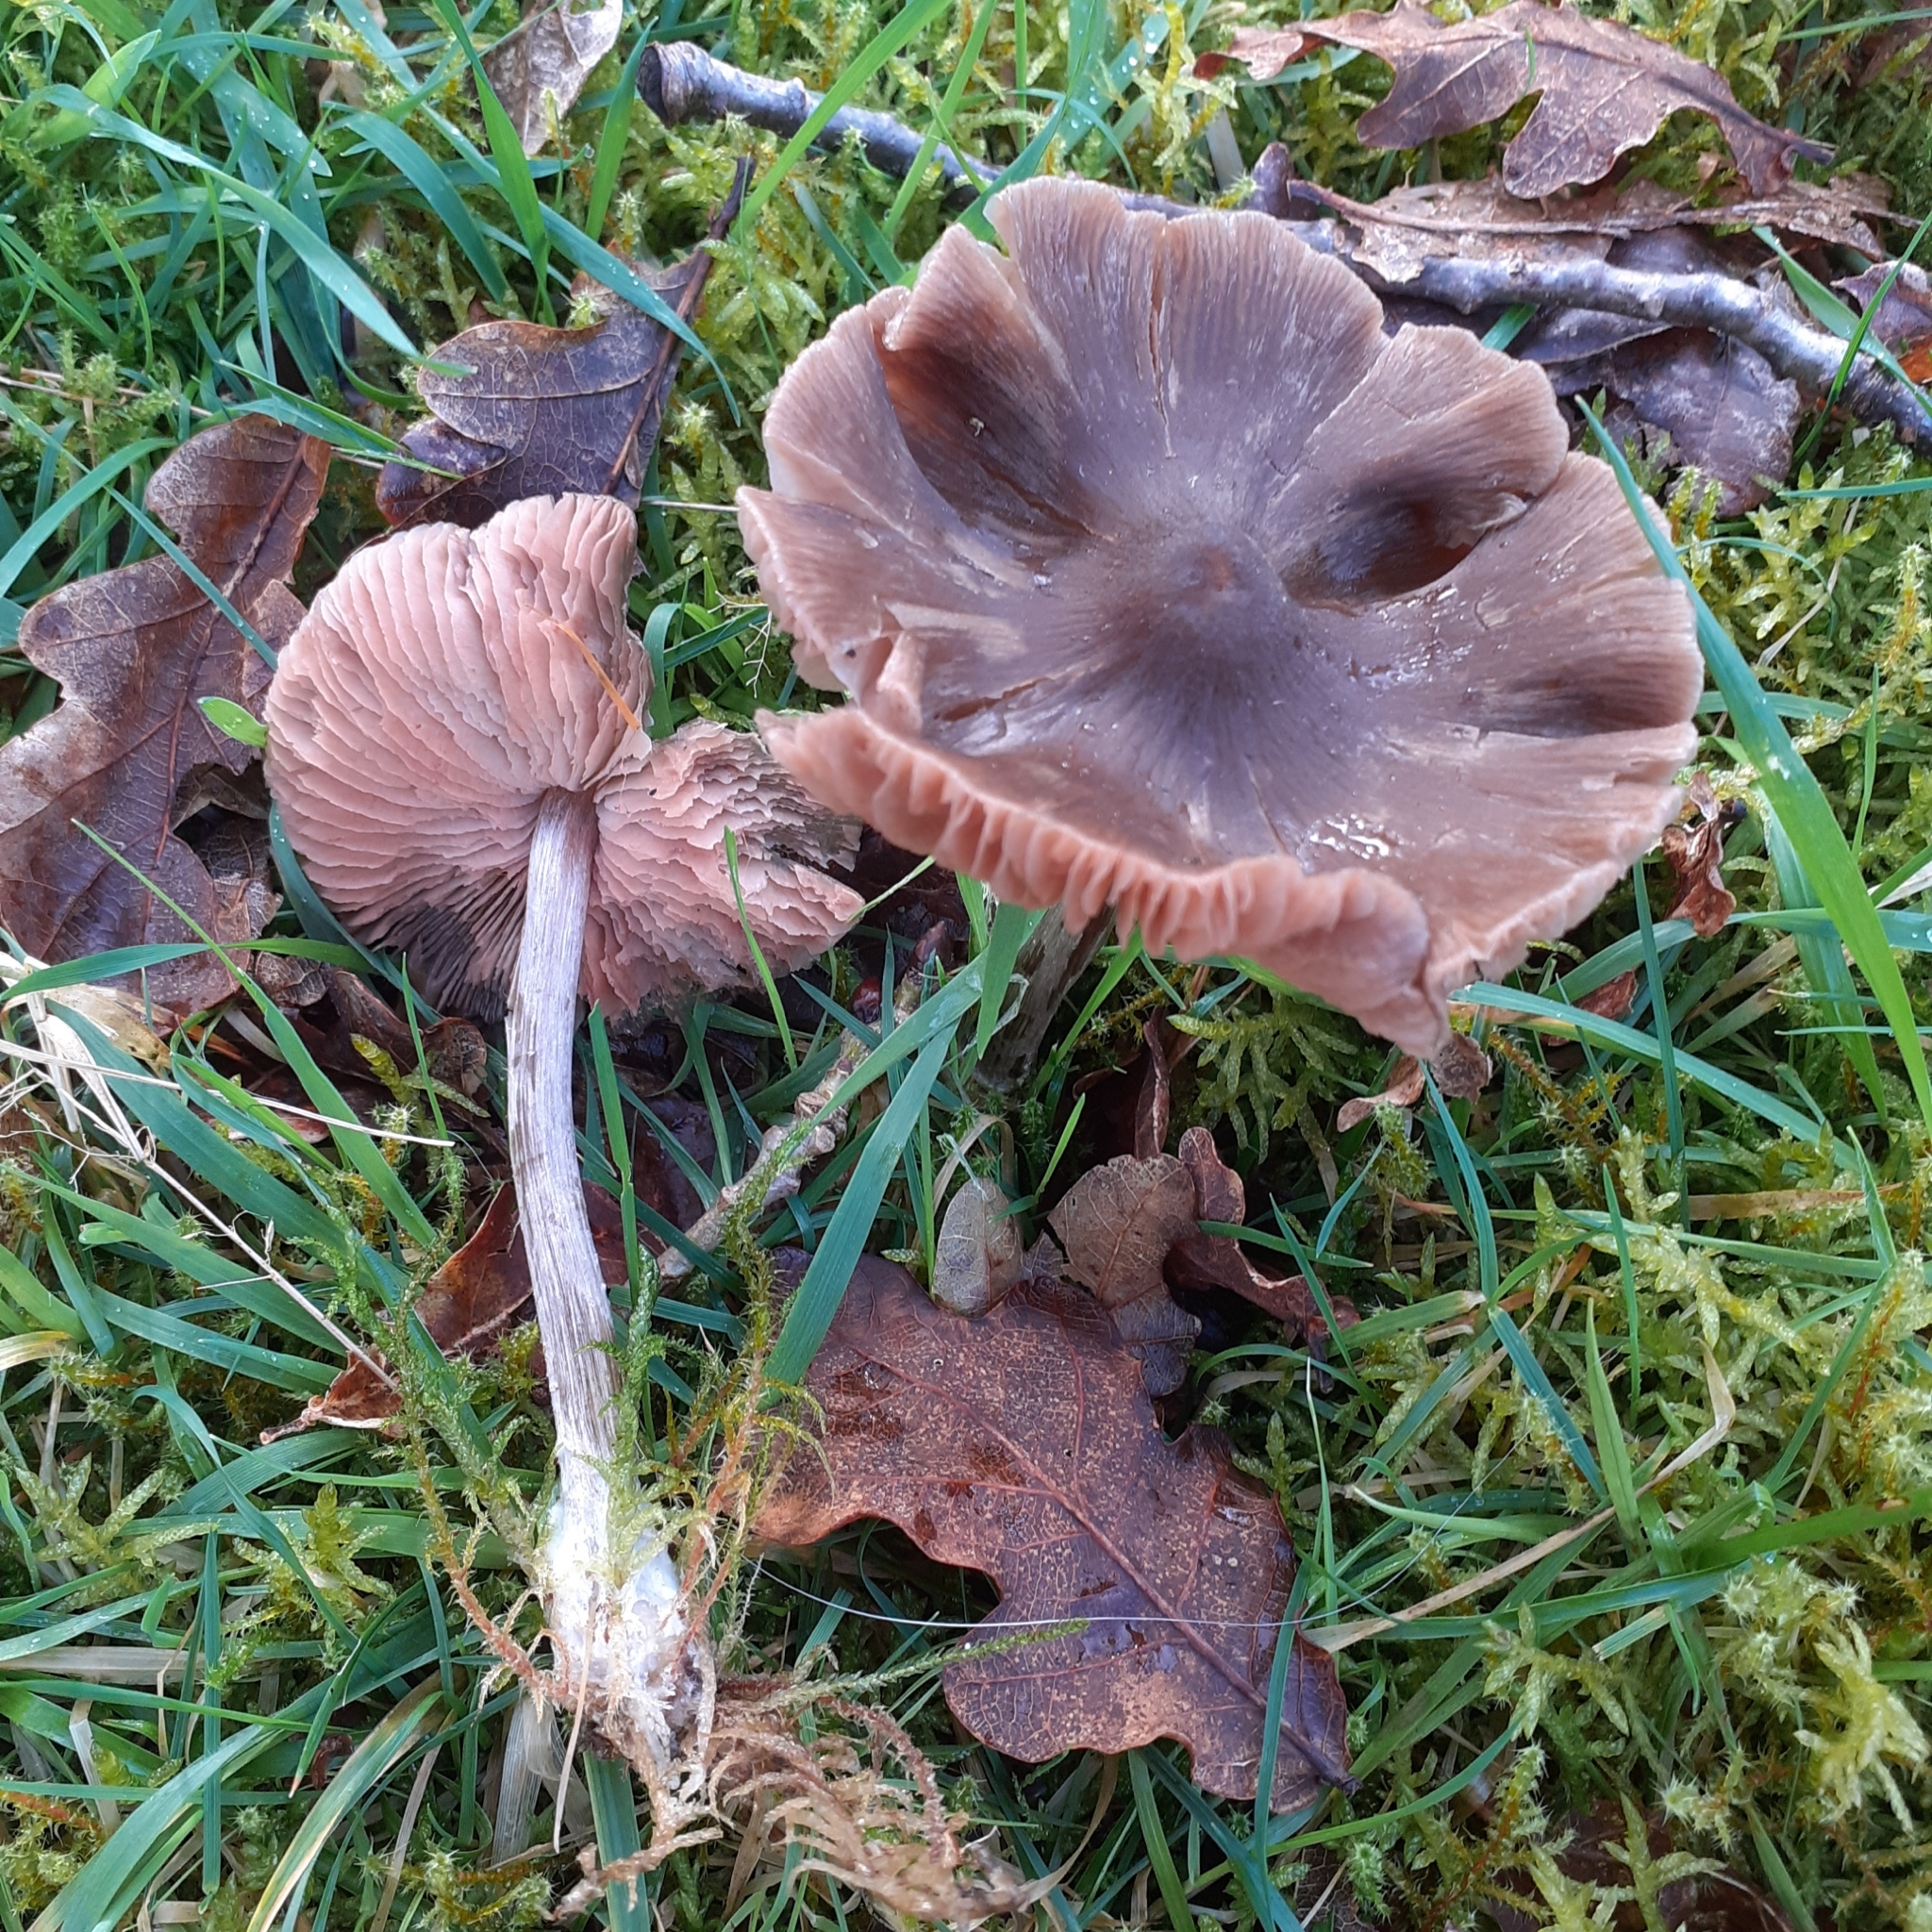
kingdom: Fungi
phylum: Basidiomycota
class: Agaricomycetes
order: Agaricales
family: Entolomataceae
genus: Entoloma
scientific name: Entoloma conferendum
